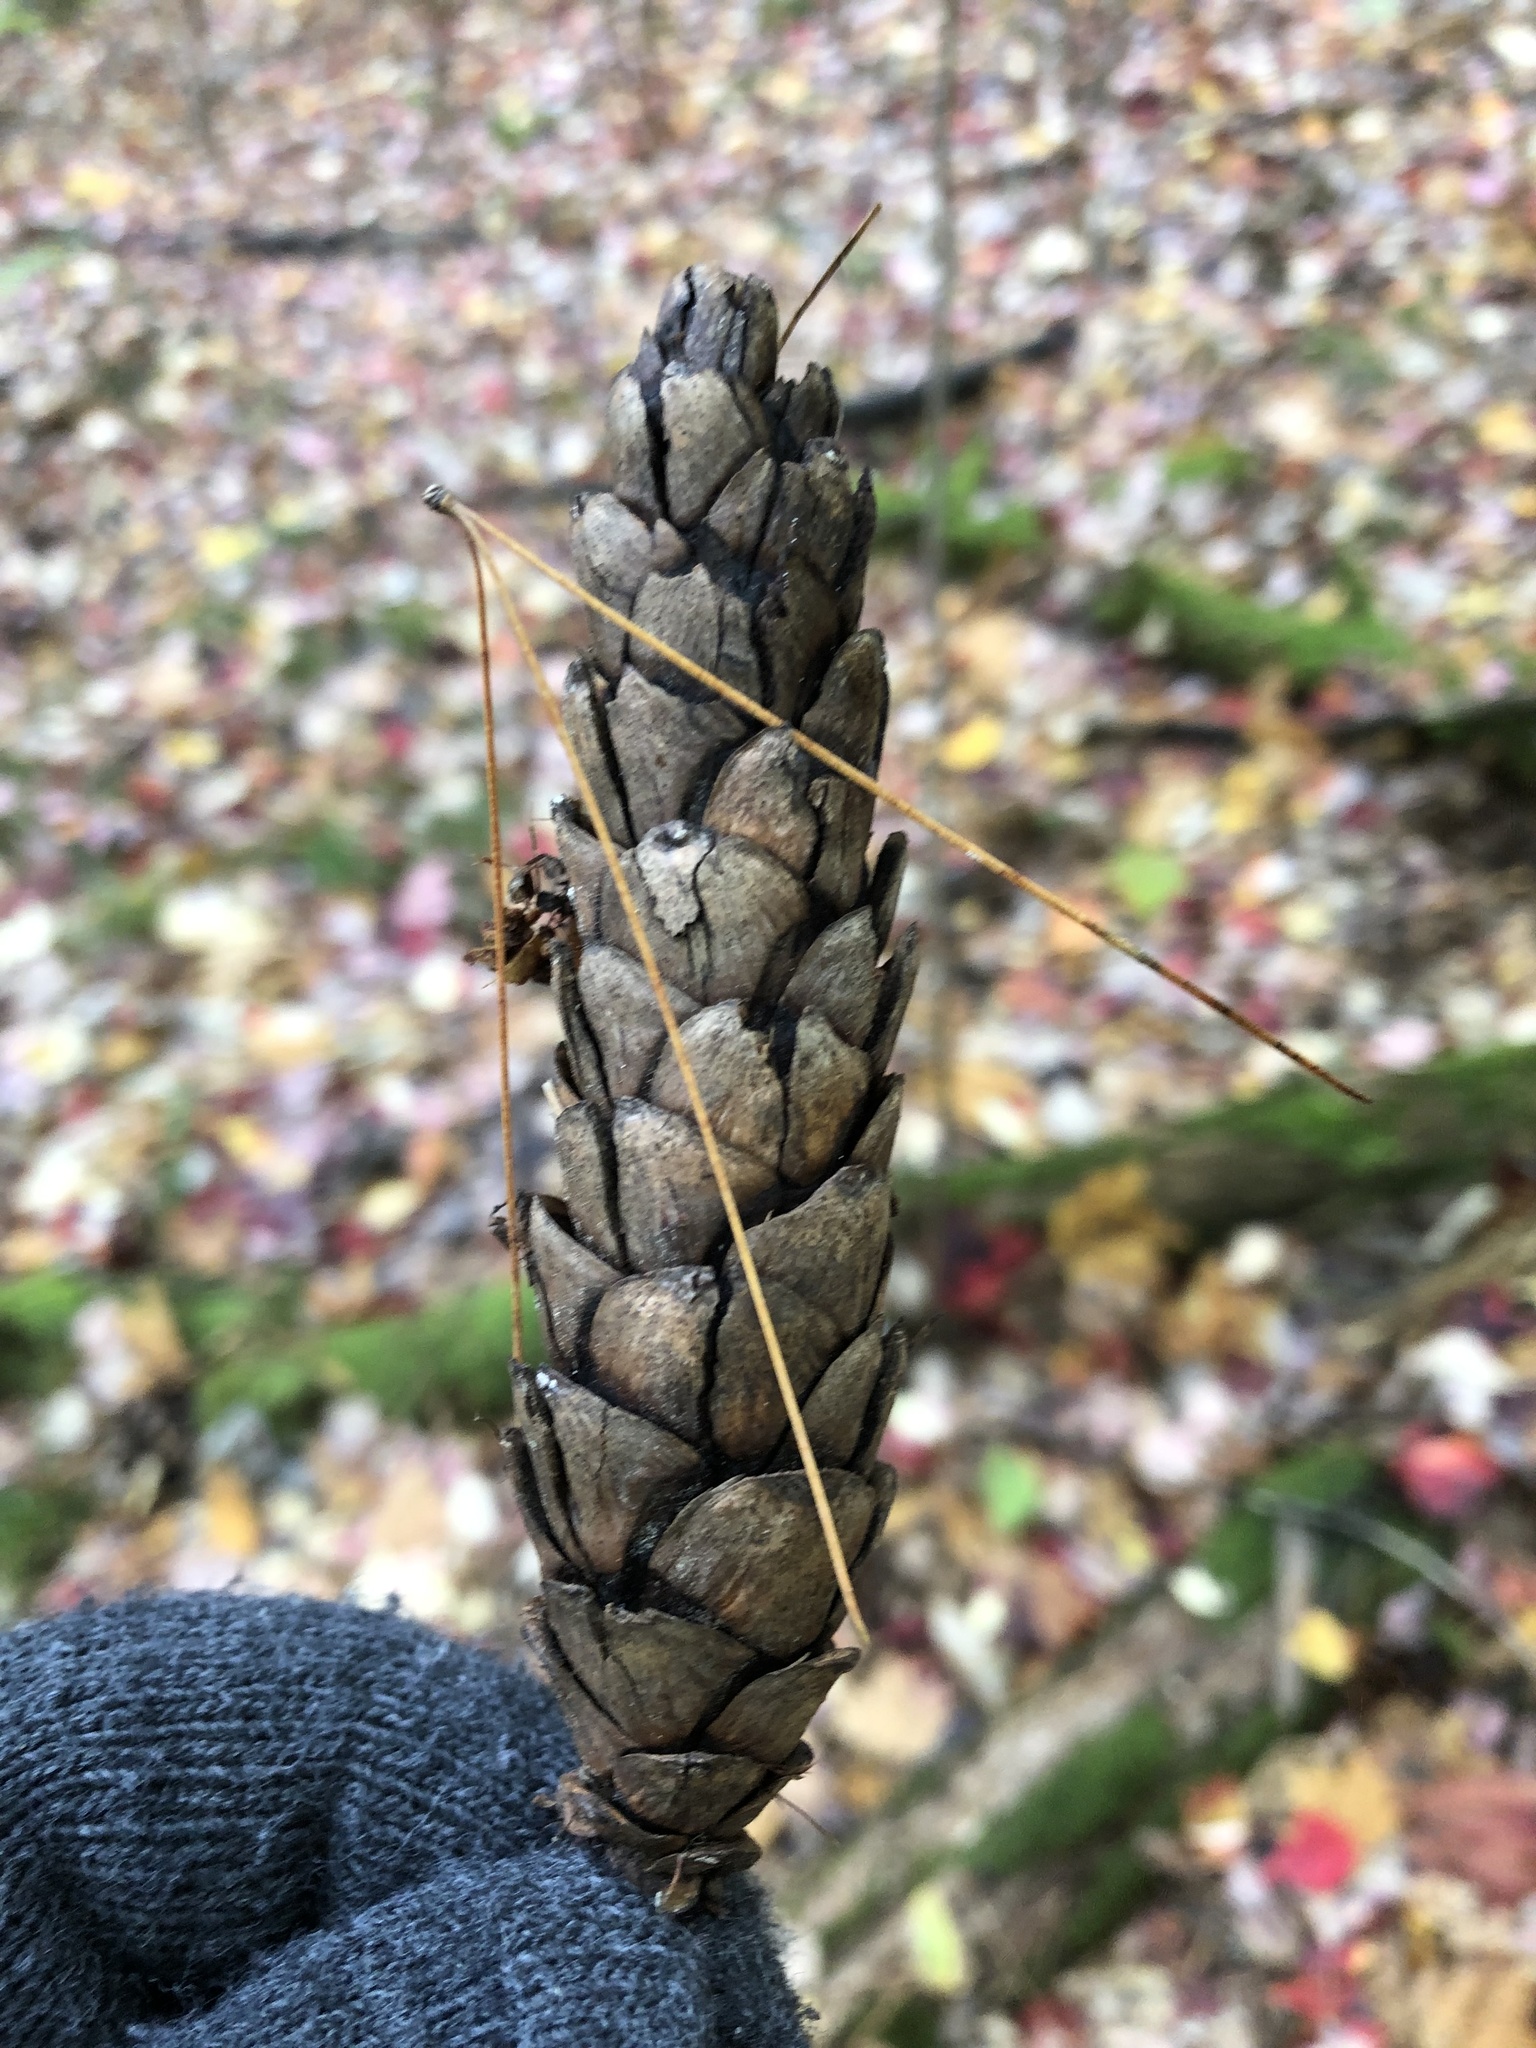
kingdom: Plantae
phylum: Tracheophyta
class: Pinopsida
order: Pinales
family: Pinaceae
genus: Pinus
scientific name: Pinus strobus
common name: Weymouth pine
